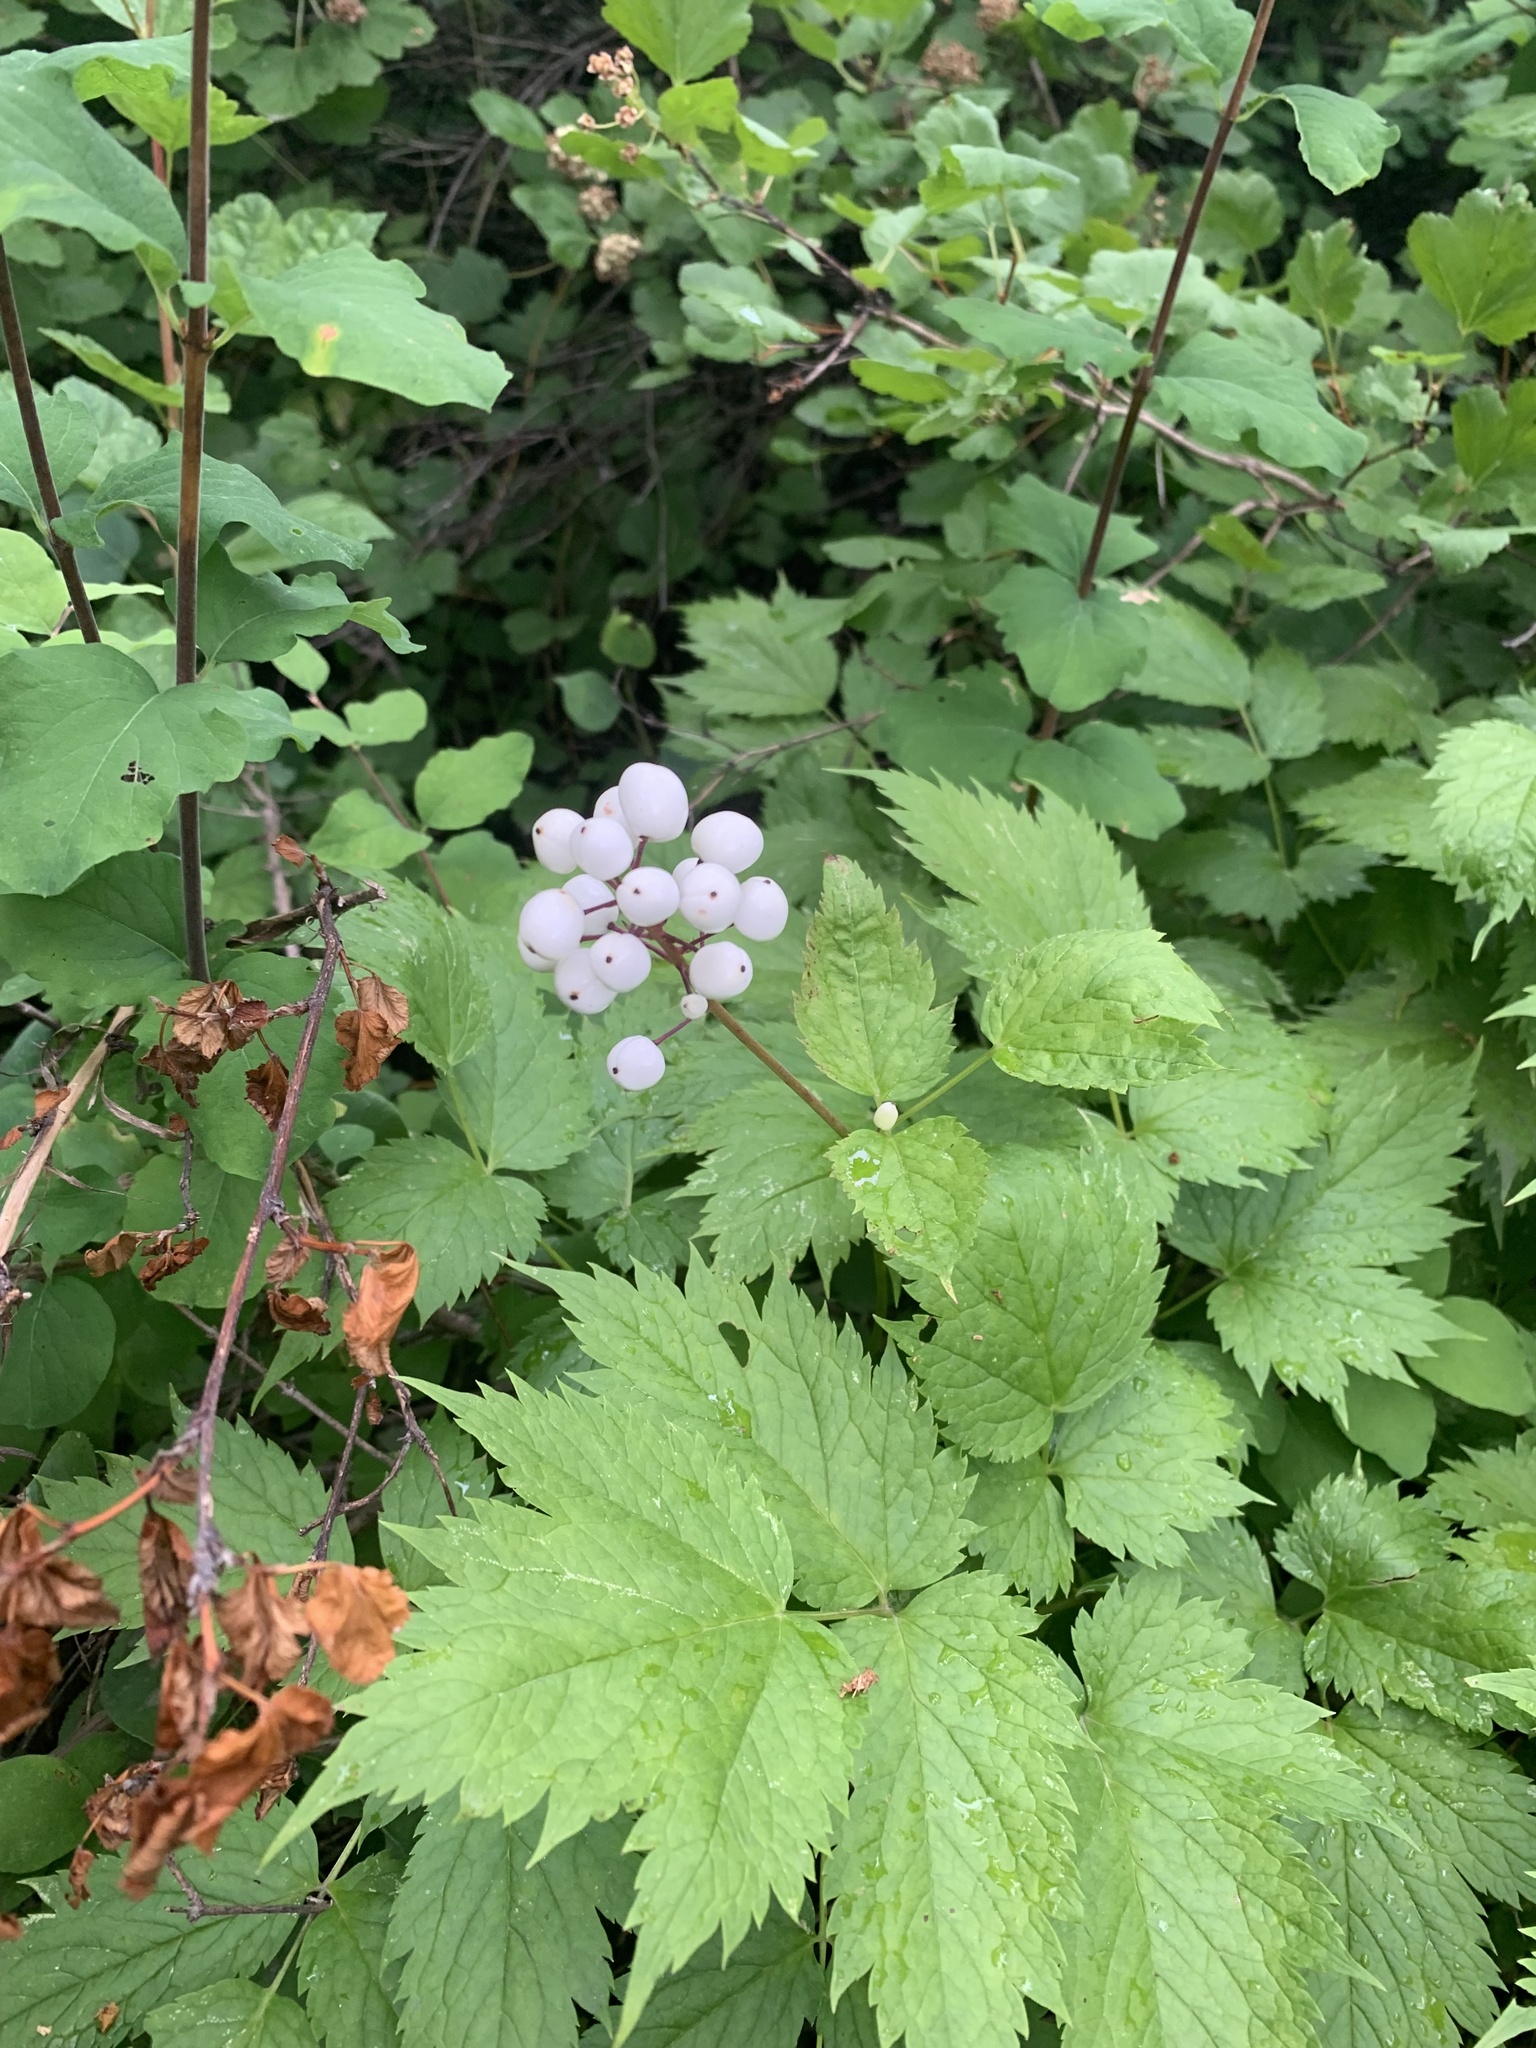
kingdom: Plantae
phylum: Tracheophyta
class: Magnoliopsida
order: Ranunculales
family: Ranunculaceae
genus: Actaea
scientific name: Actaea rubra
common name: Red baneberry
